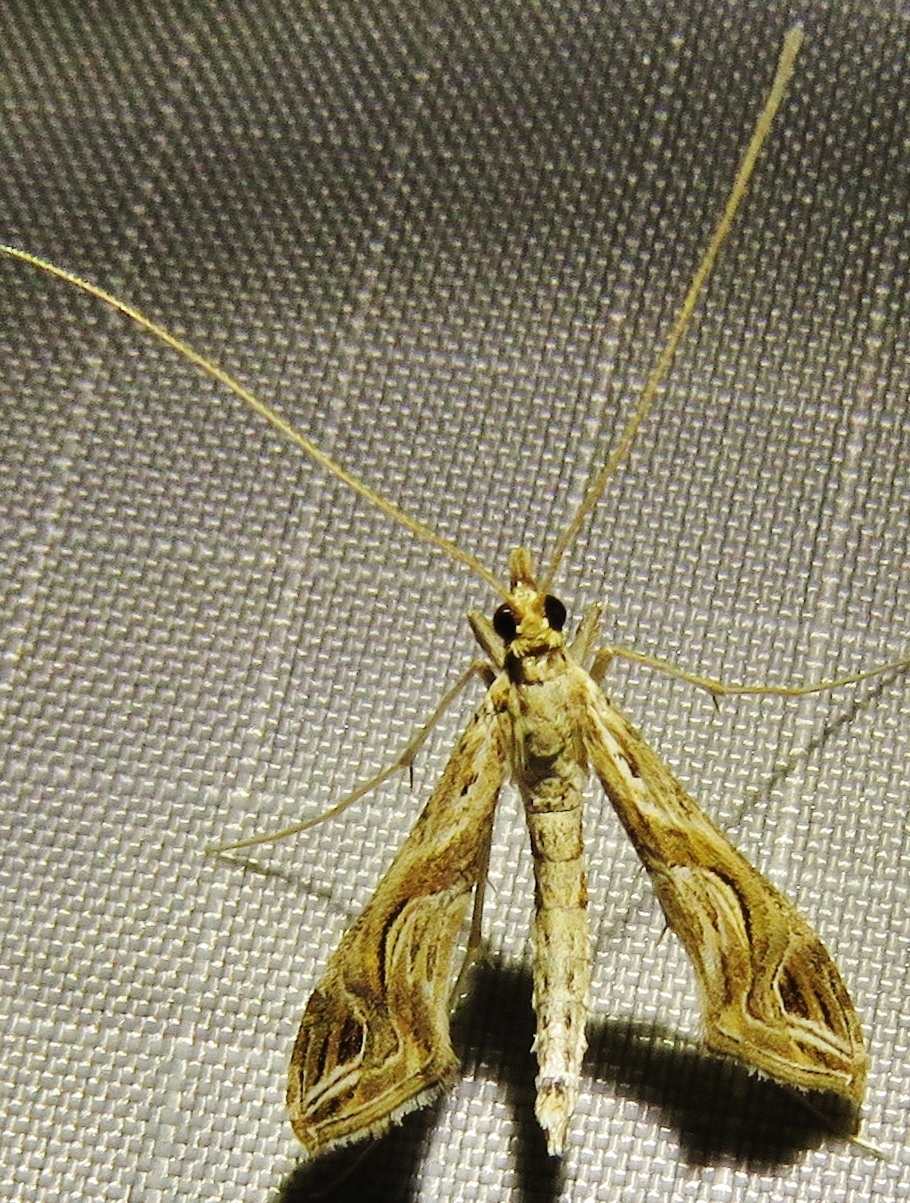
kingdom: Animalia
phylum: Arthropoda
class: Insecta
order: Lepidoptera
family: Crambidae
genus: Lineodes
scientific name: Lineodes integra
